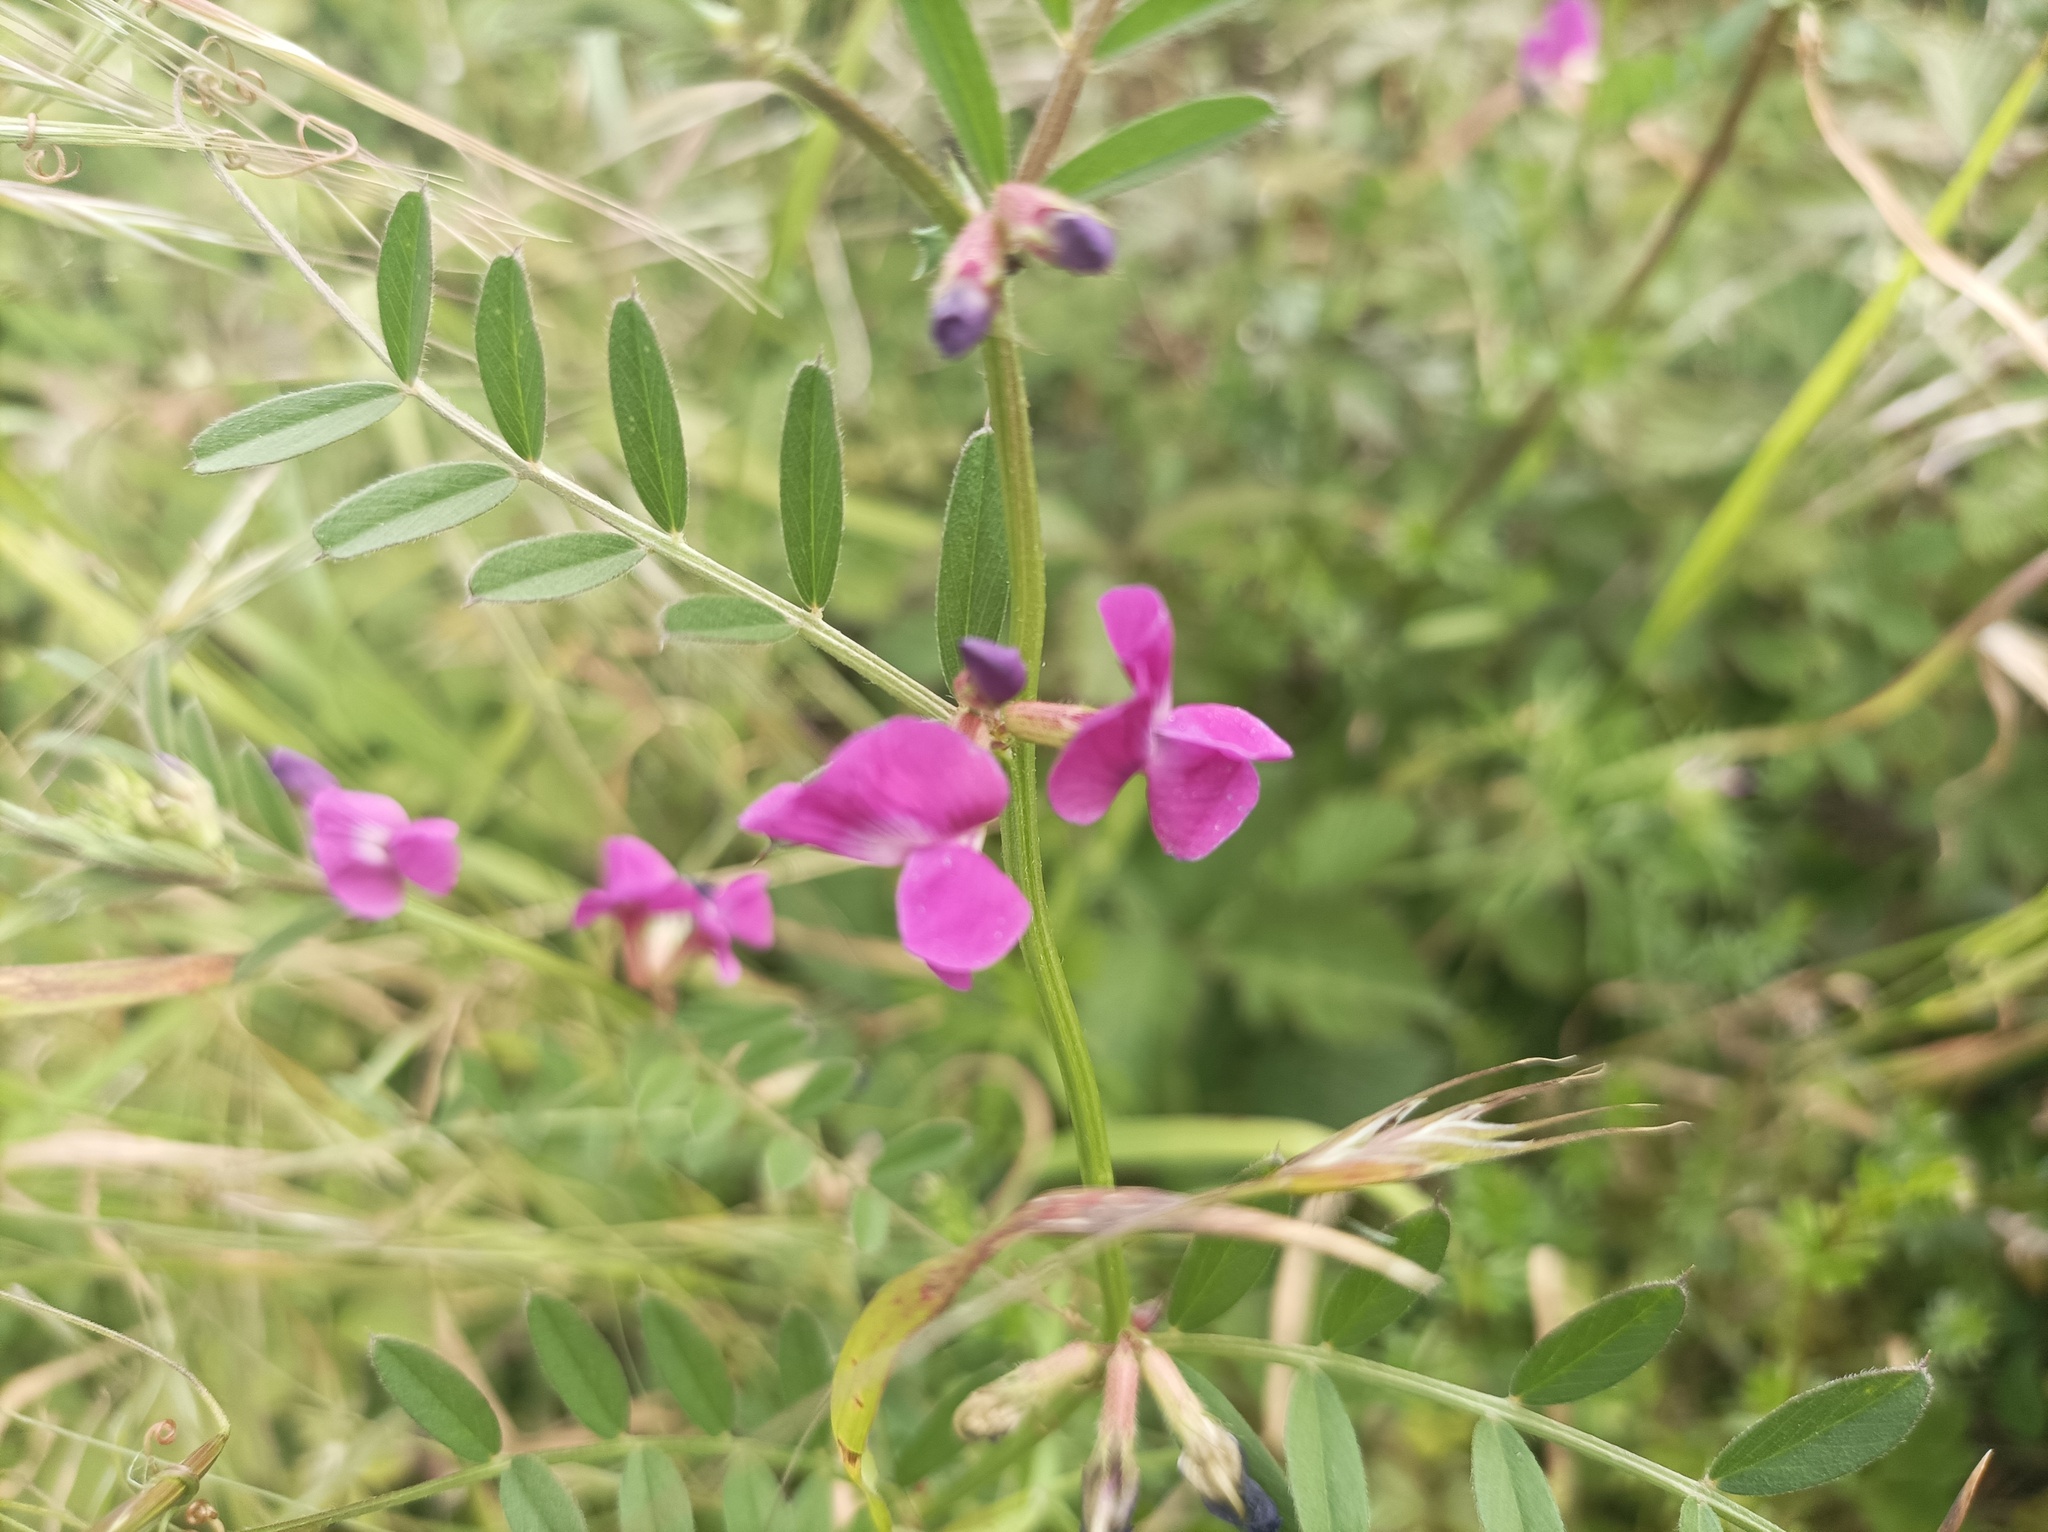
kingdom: Plantae
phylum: Tracheophyta
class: Magnoliopsida
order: Fabales
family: Fabaceae
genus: Vicia
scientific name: Vicia sativa
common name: Garden vetch
